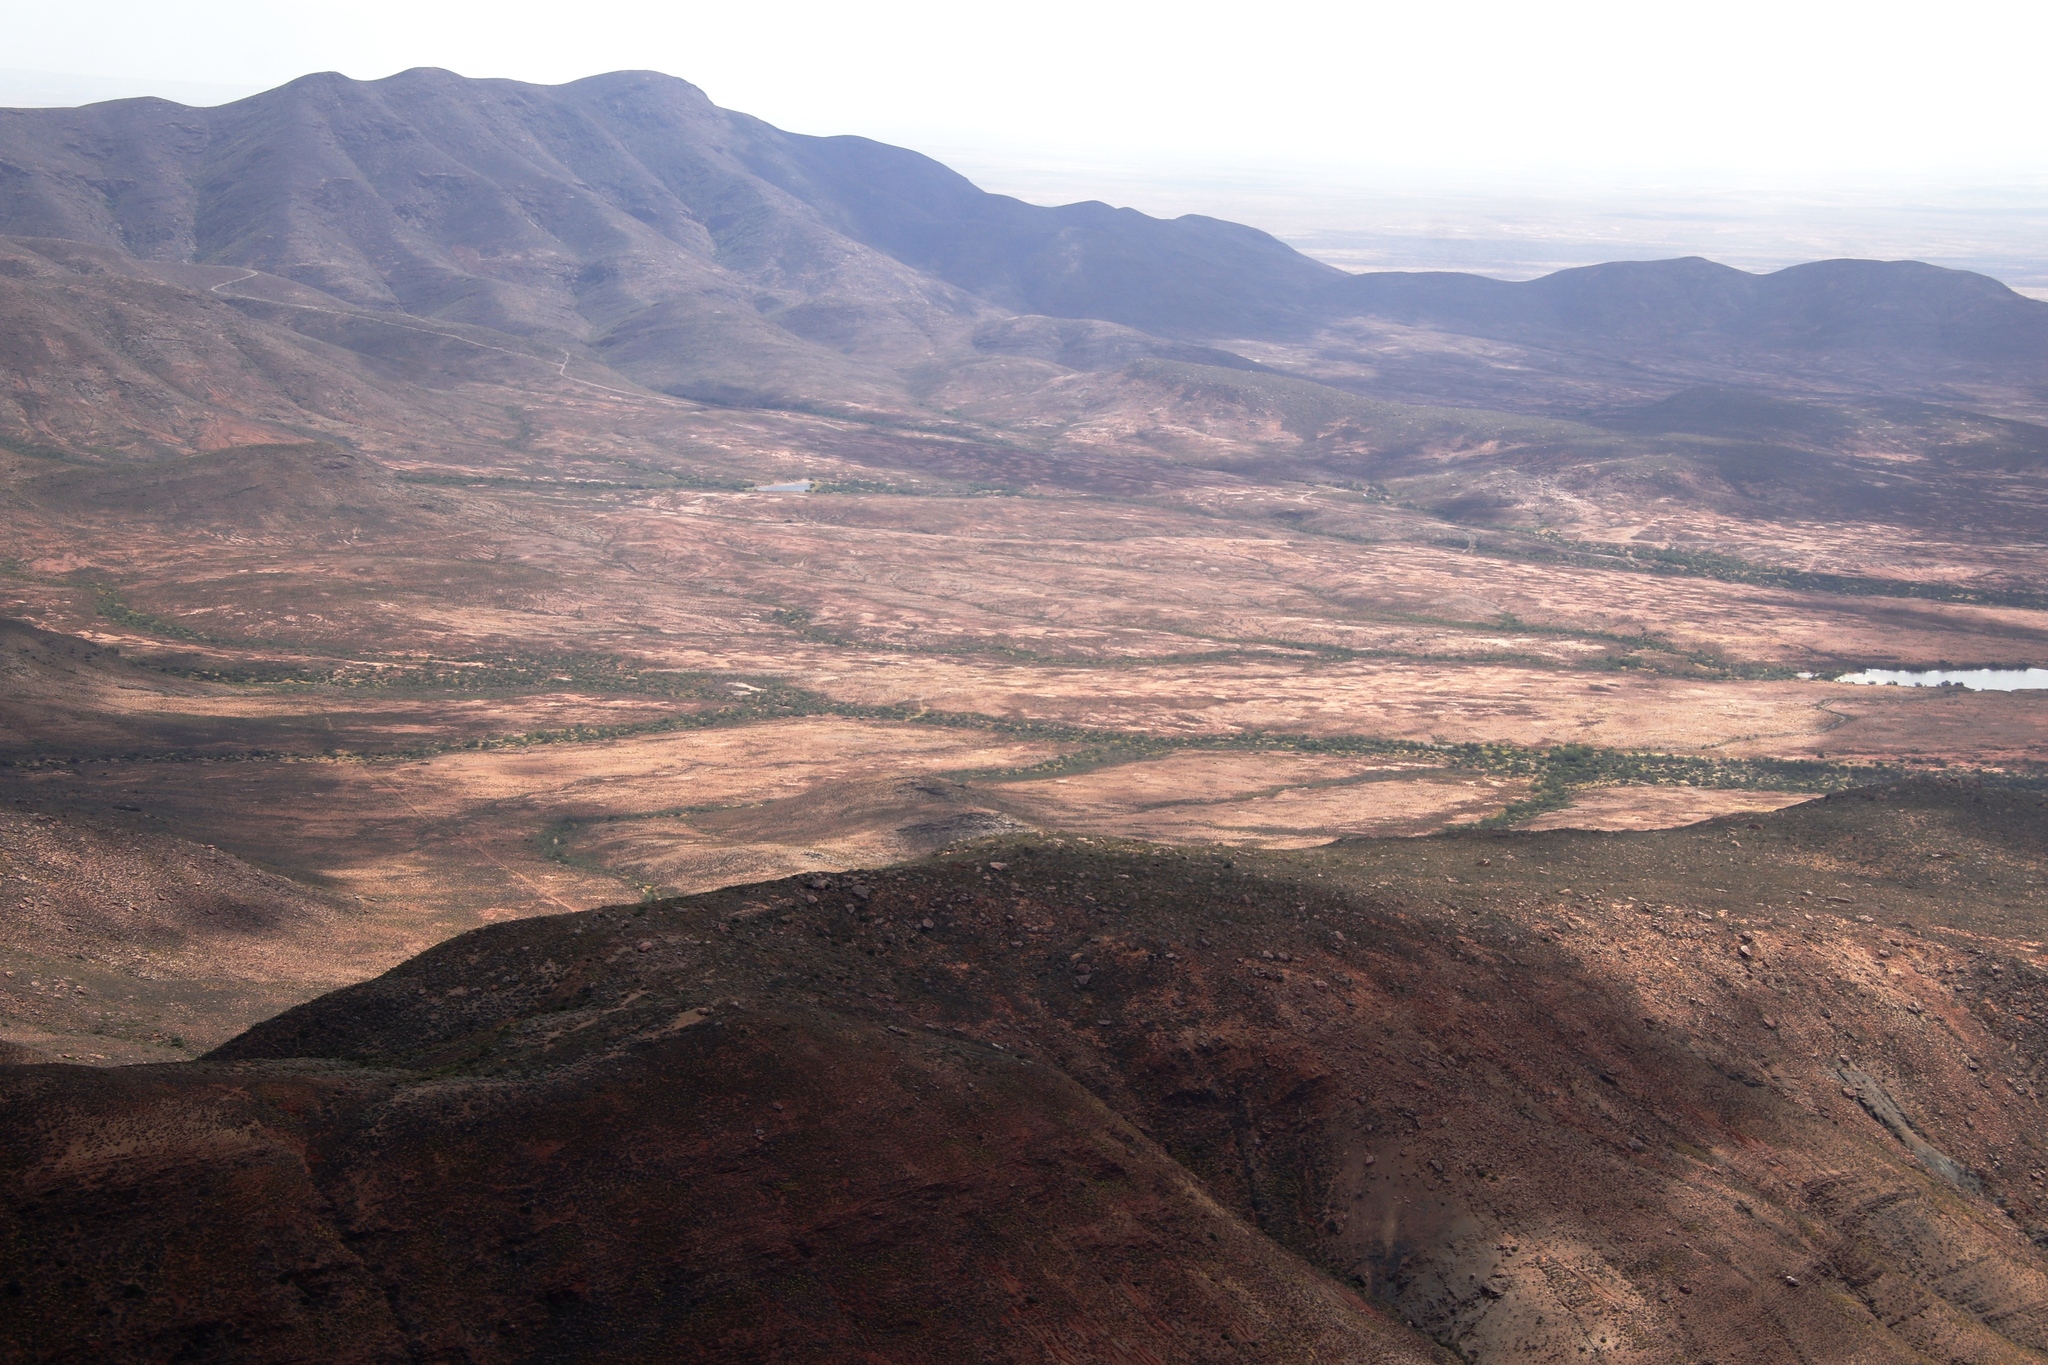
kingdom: Animalia
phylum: Arthropoda
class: Insecta
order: Blattodea
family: Hodotermitidae
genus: Microhodotermes
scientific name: Microhodotermes viator
